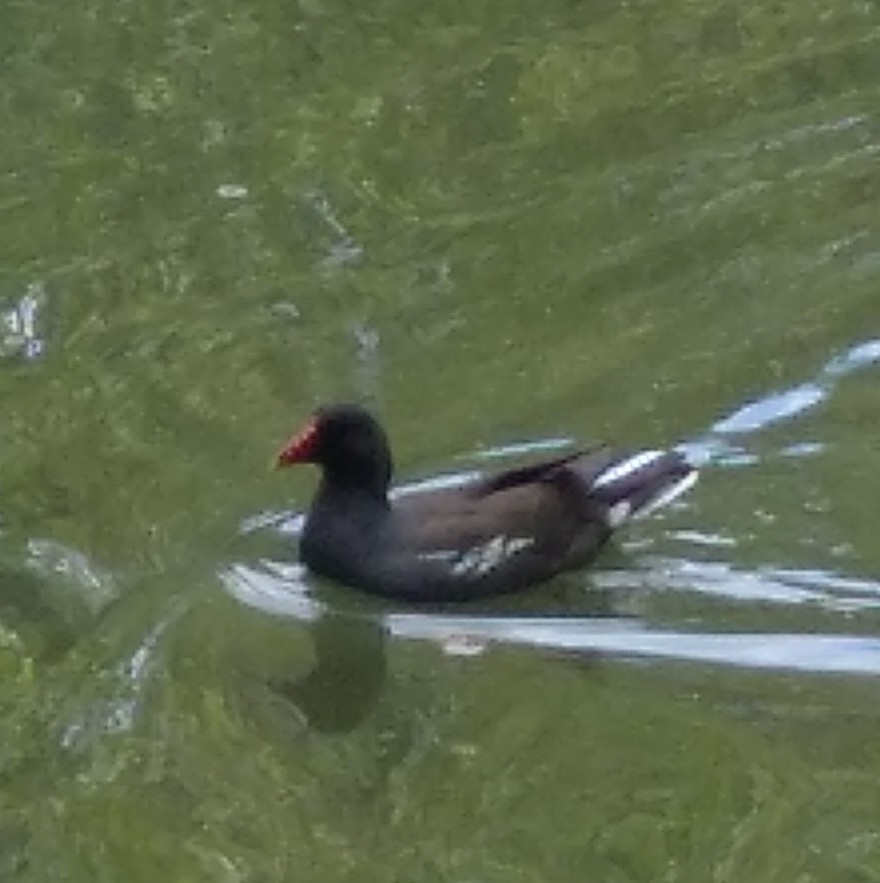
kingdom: Animalia
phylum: Chordata
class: Aves
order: Gruiformes
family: Rallidae
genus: Gallinula
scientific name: Gallinula chloropus
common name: Common moorhen
